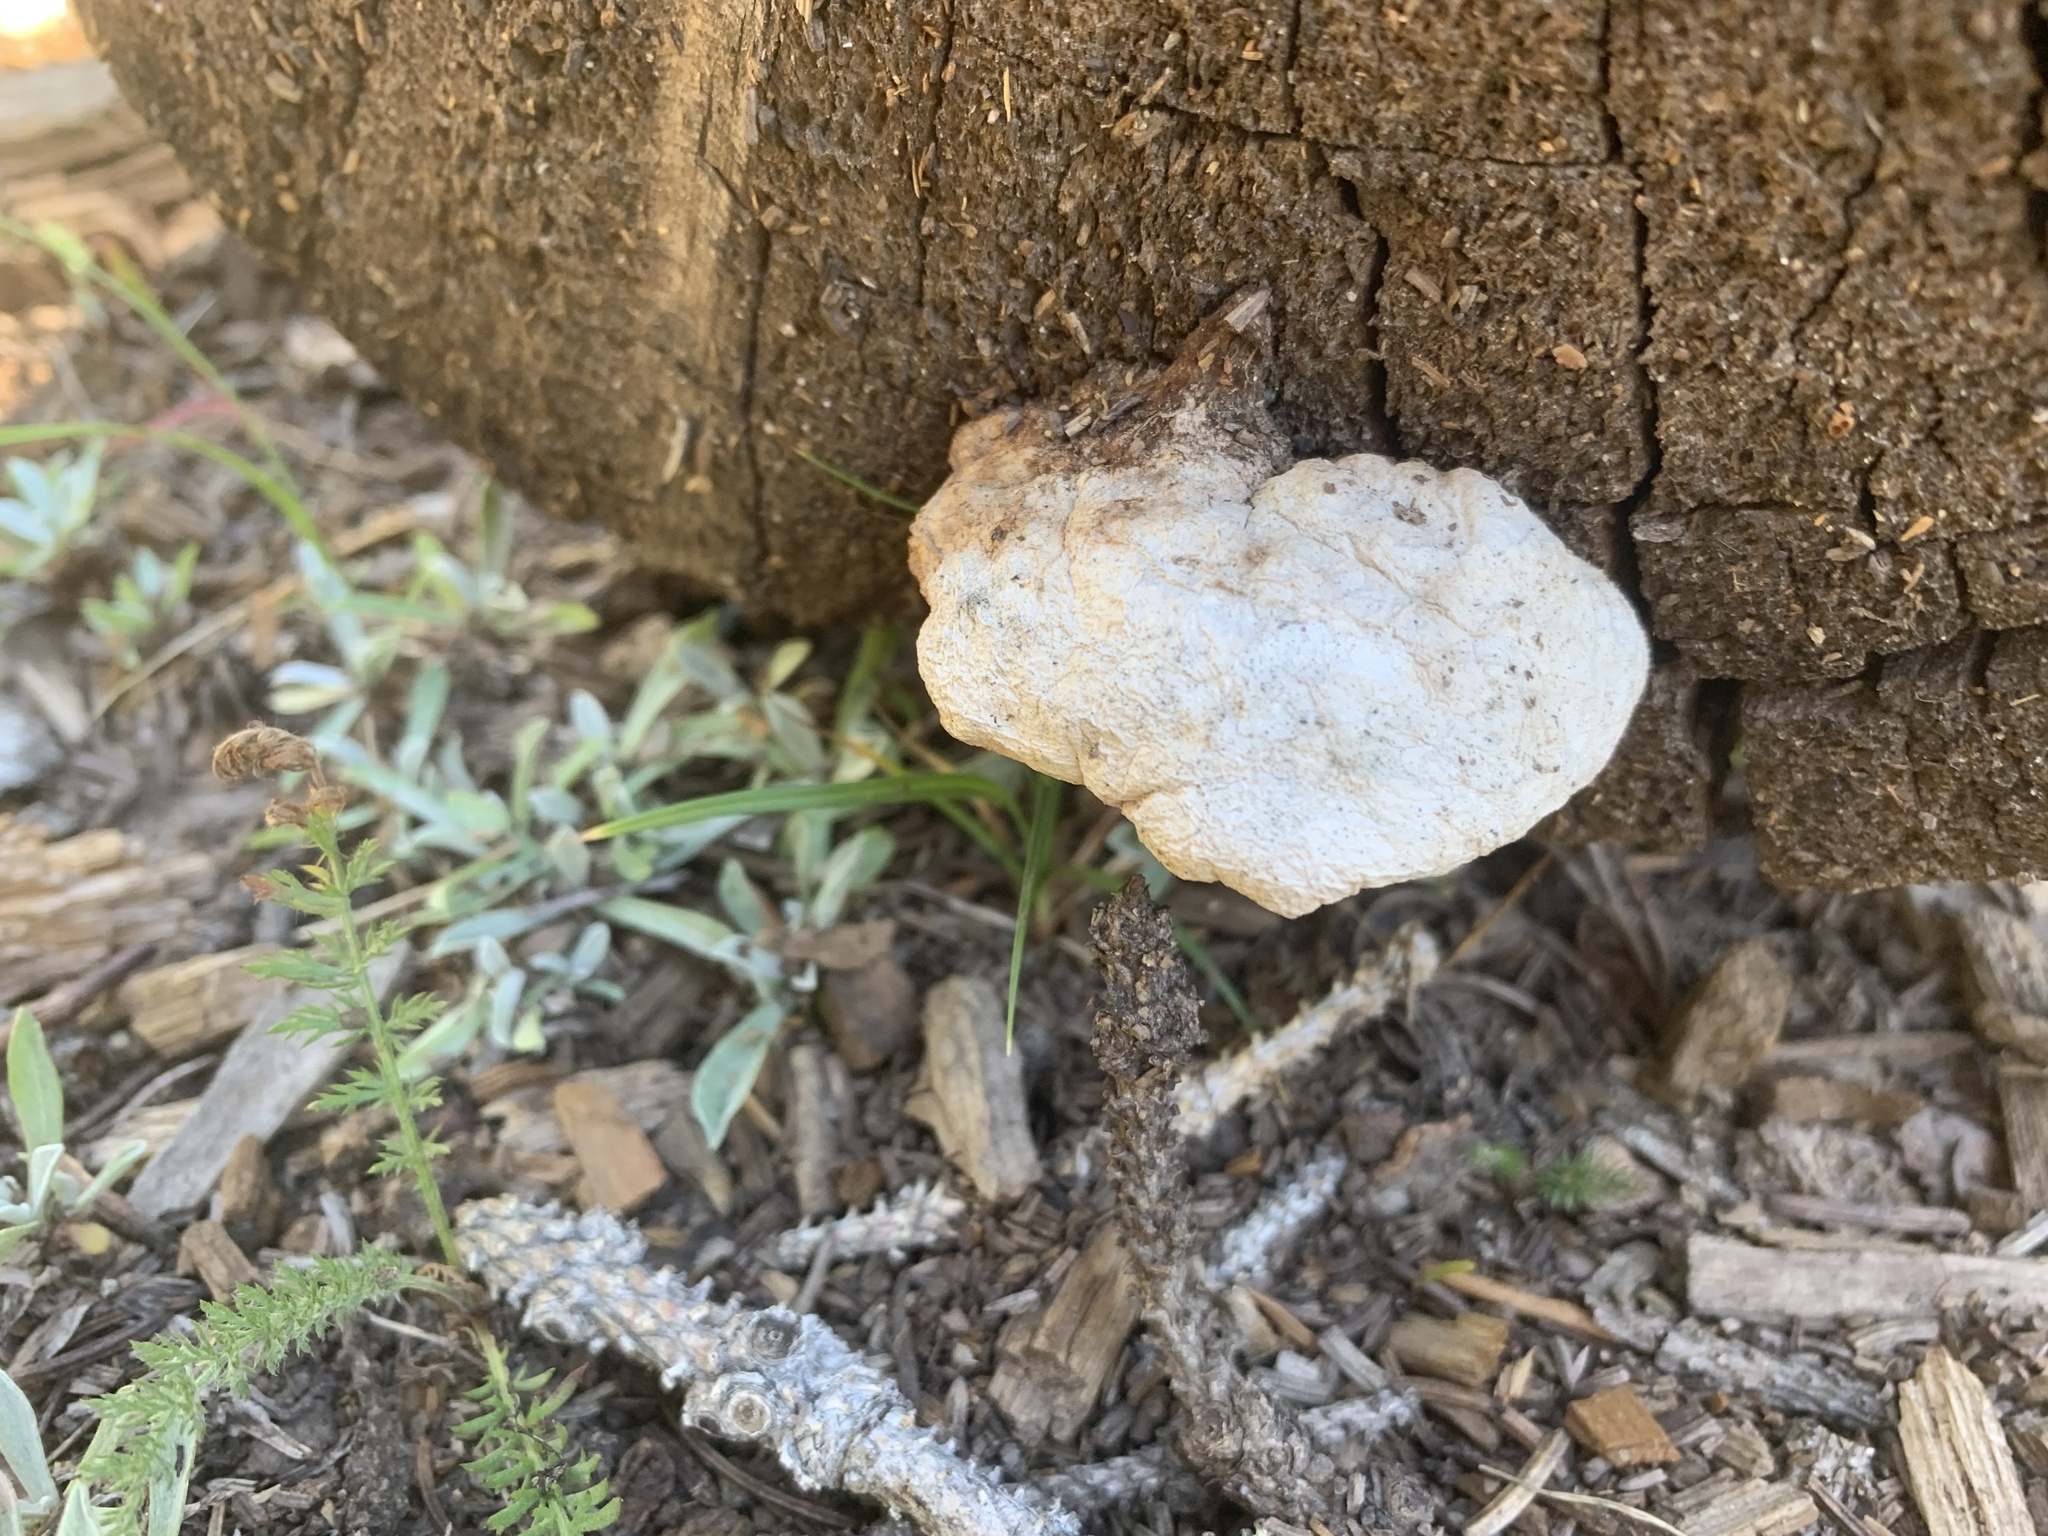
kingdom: Fungi
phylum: Basidiomycota
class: Agaricomycetes
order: Polyporales
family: Incrustoporiaceae
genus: Tyromyces
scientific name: Tyromyces leucospongius
